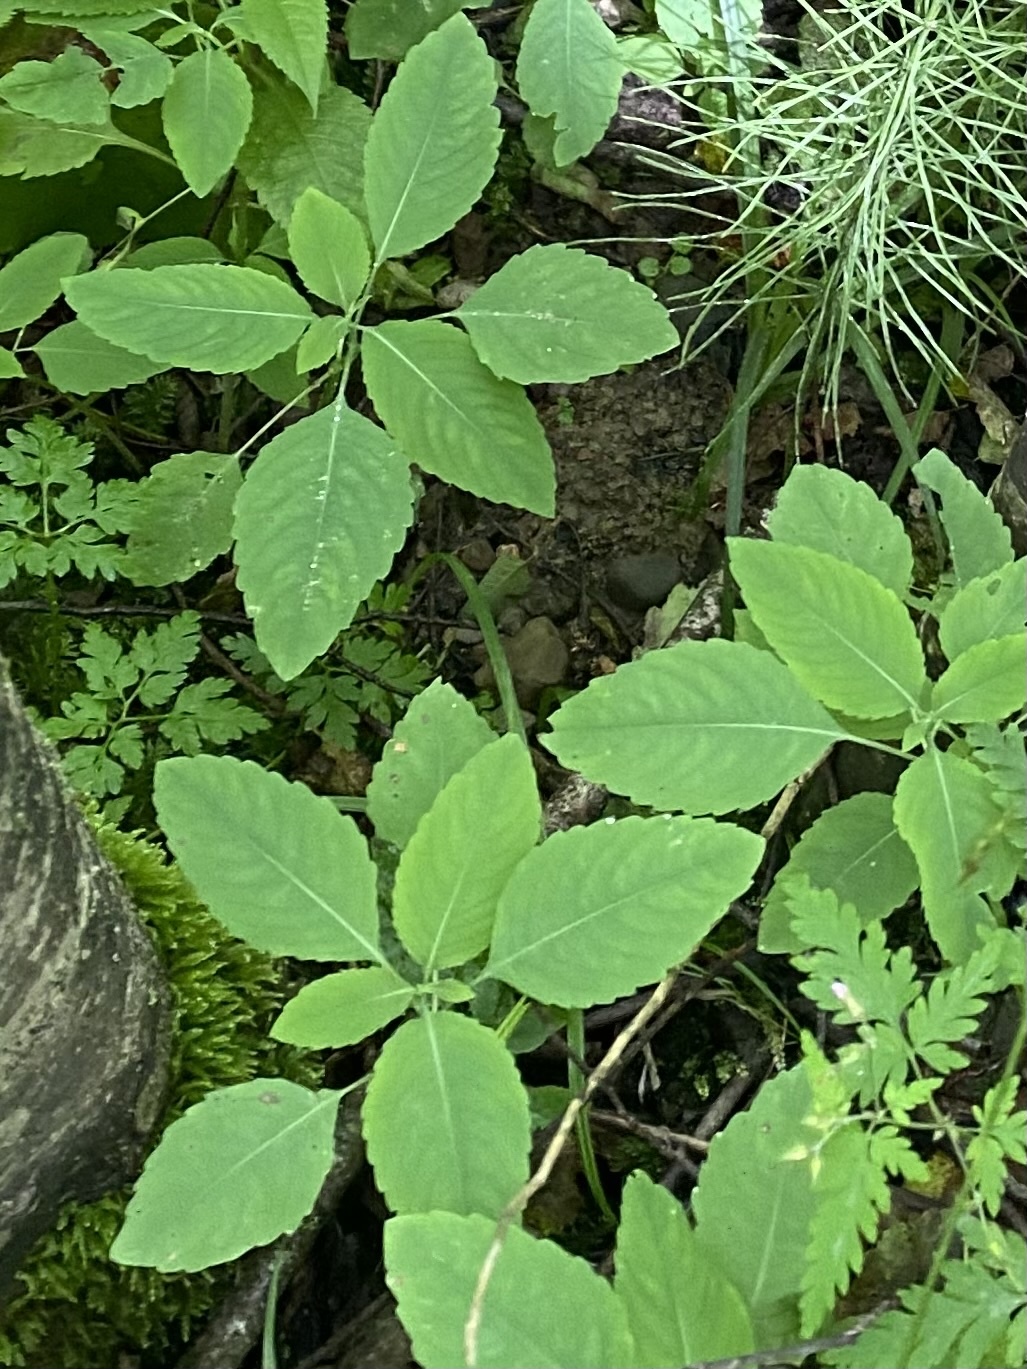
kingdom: Plantae
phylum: Tracheophyta
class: Magnoliopsida
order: Ericales
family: Balsaminaceae
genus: Impatiens
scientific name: Impatiens noli-tangere
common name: Touch-me-not balsam
